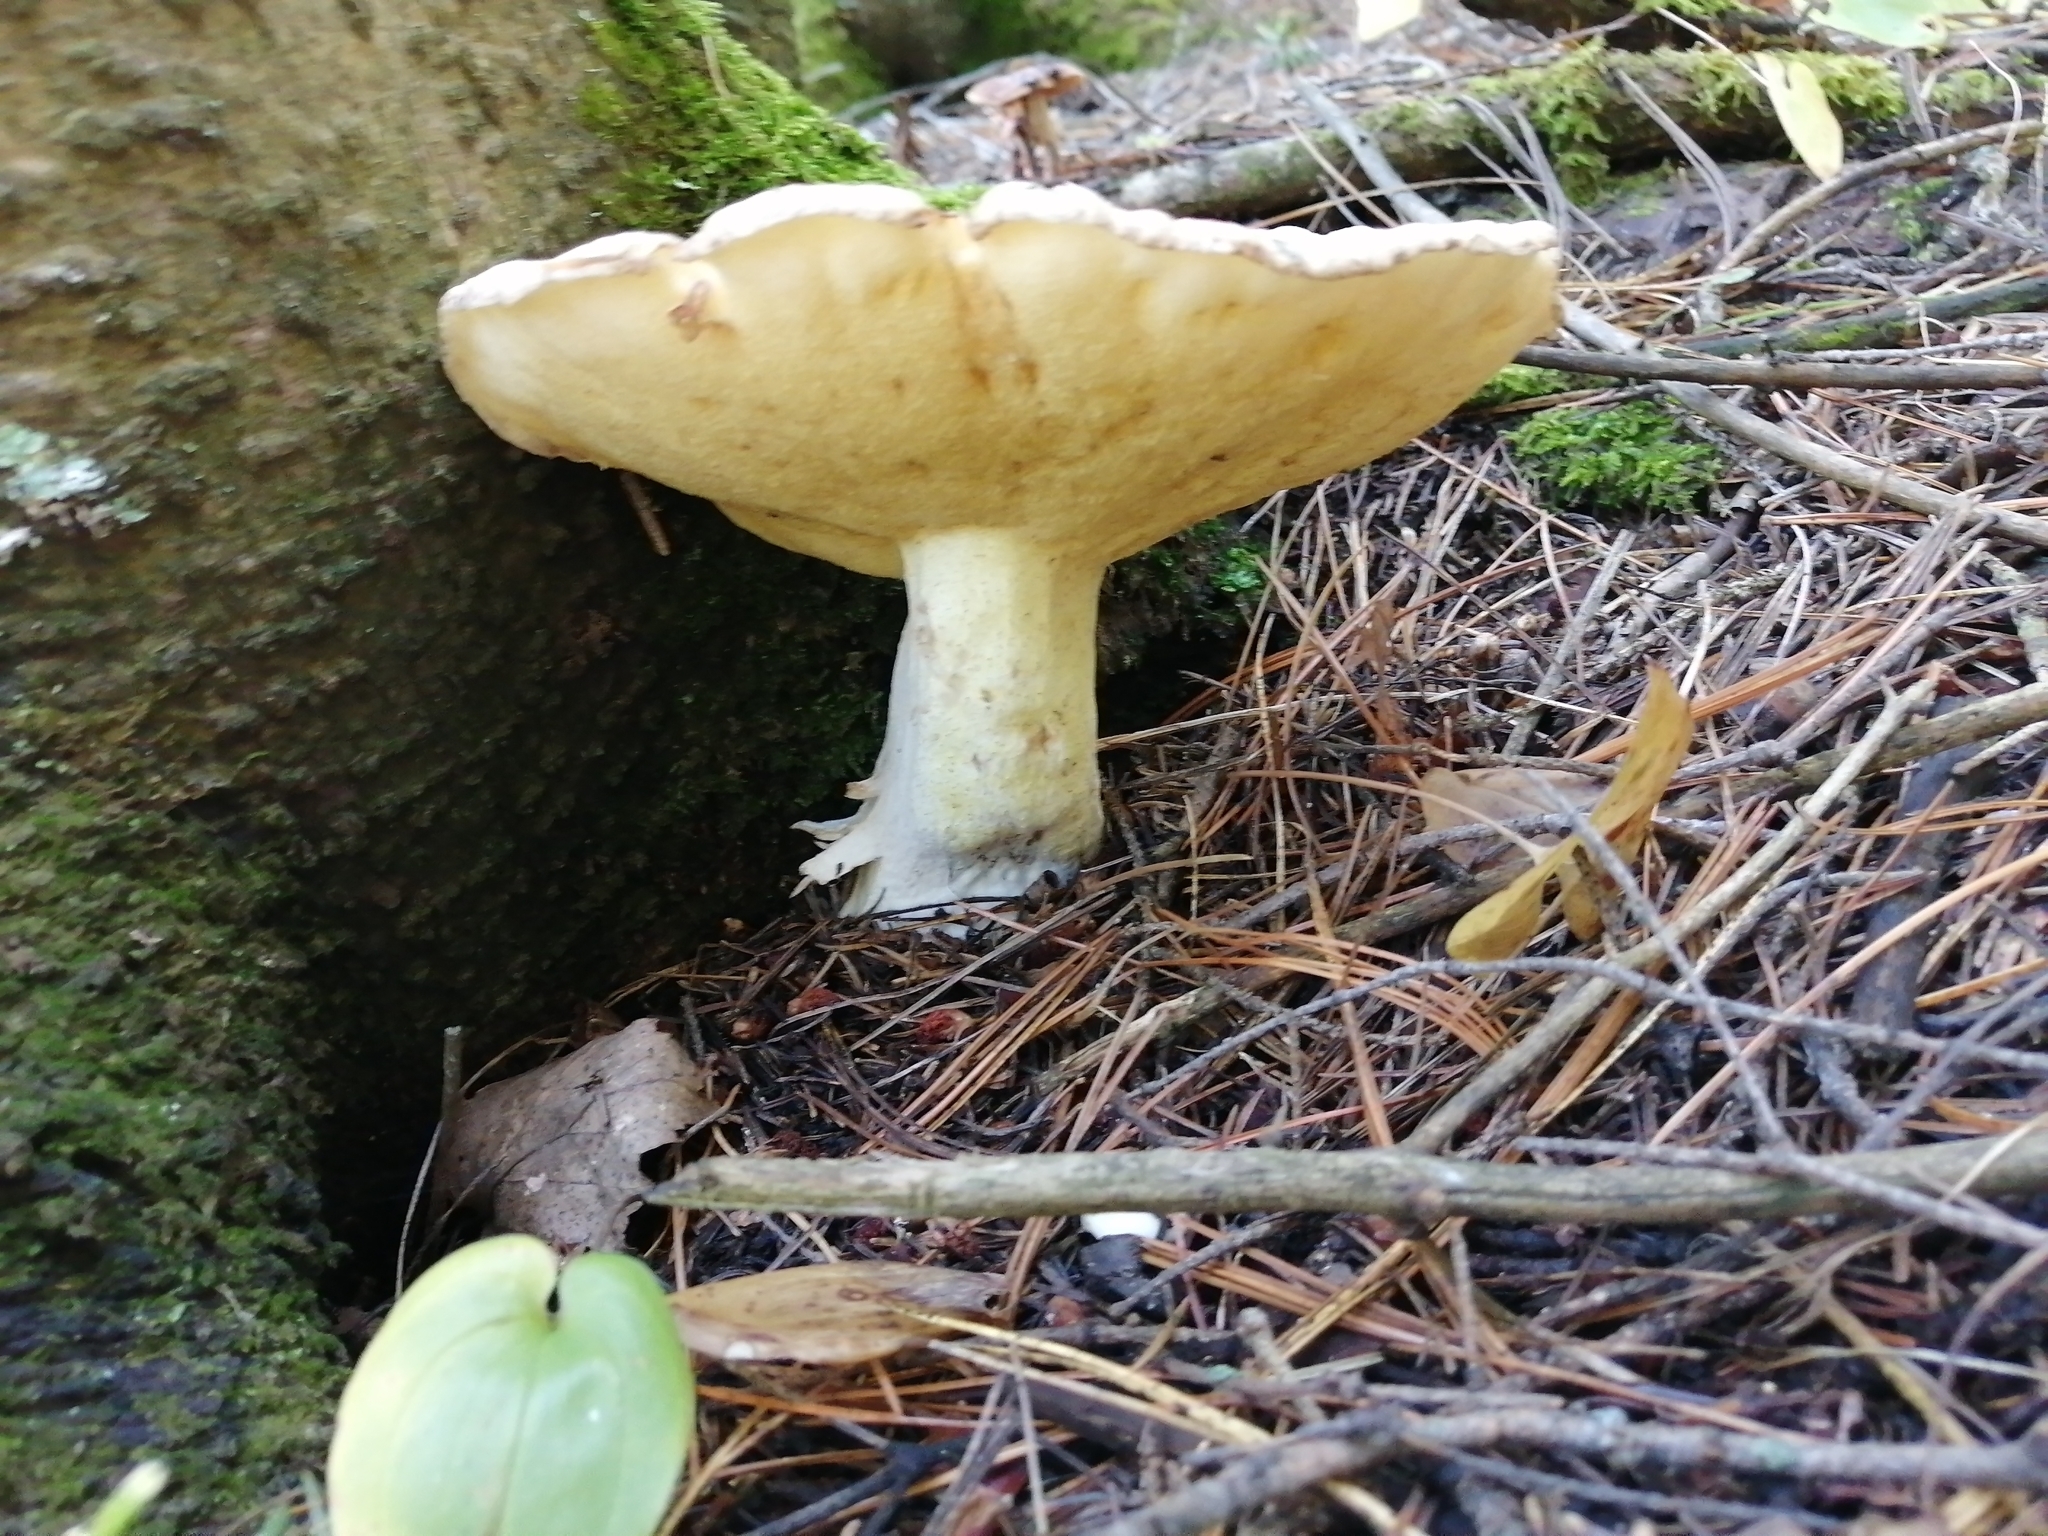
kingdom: Fungi
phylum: Basidiomycota
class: Agaricomycetes
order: Boletales
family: Suillaceae
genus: Suillus
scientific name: Suillus placidus
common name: Slippery white bolete
